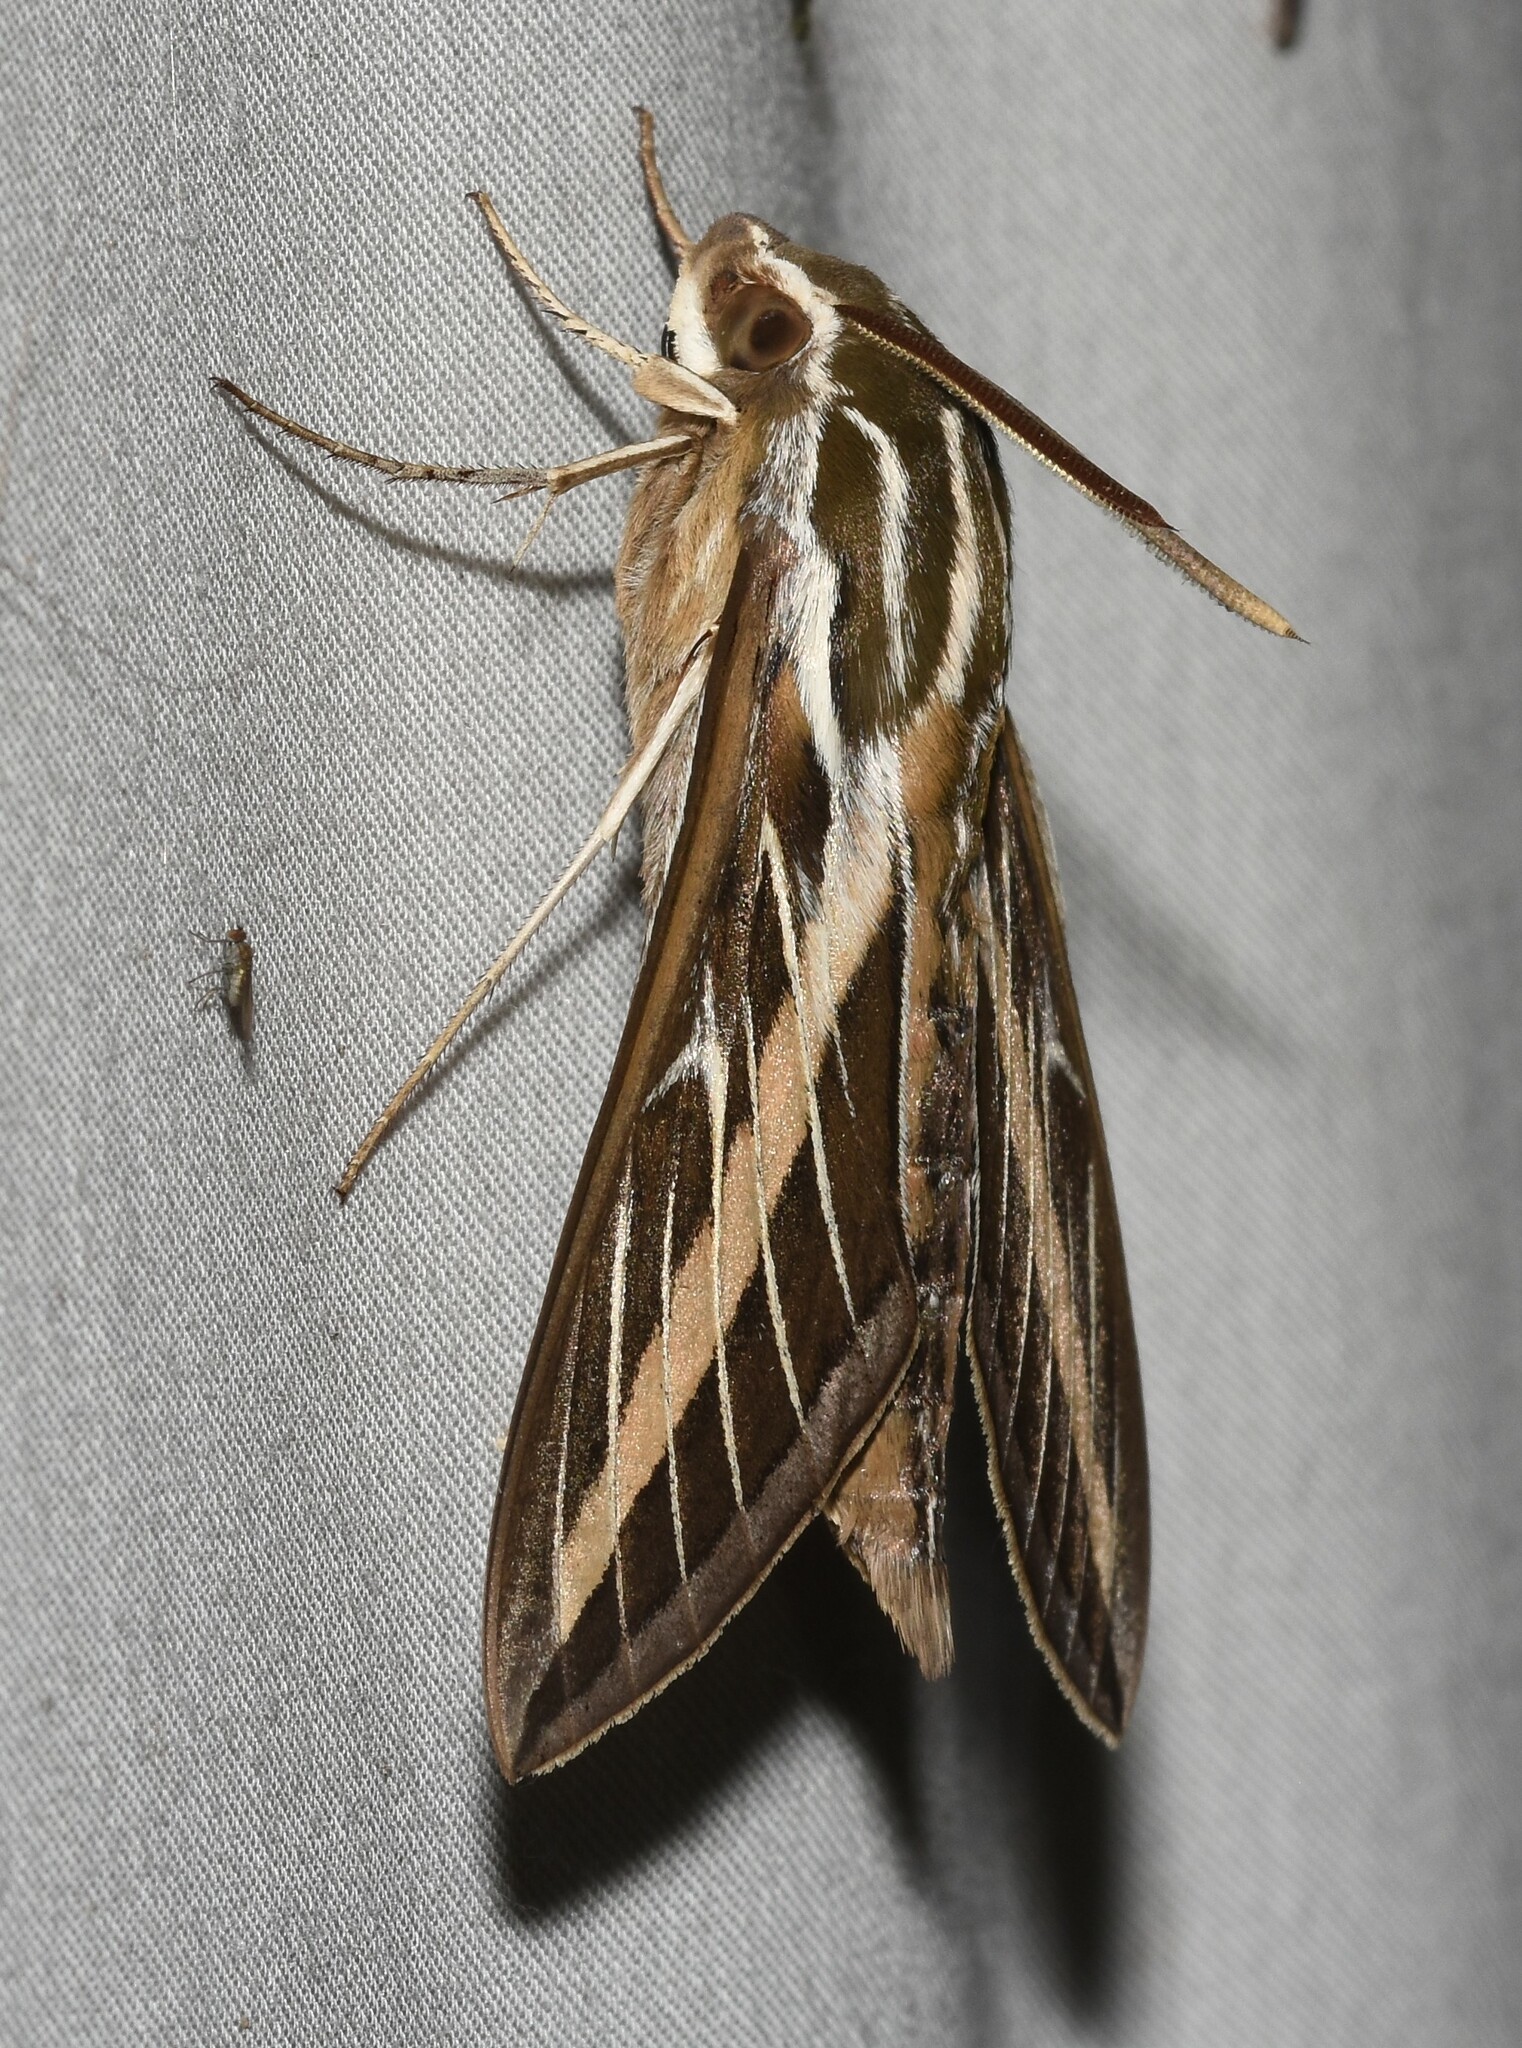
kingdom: Animalia
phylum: Arthropoda
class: Insecta
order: Lepidoptera
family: Sphingidae
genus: Hyles
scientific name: Hyles lineata
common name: White-lined sphinx
